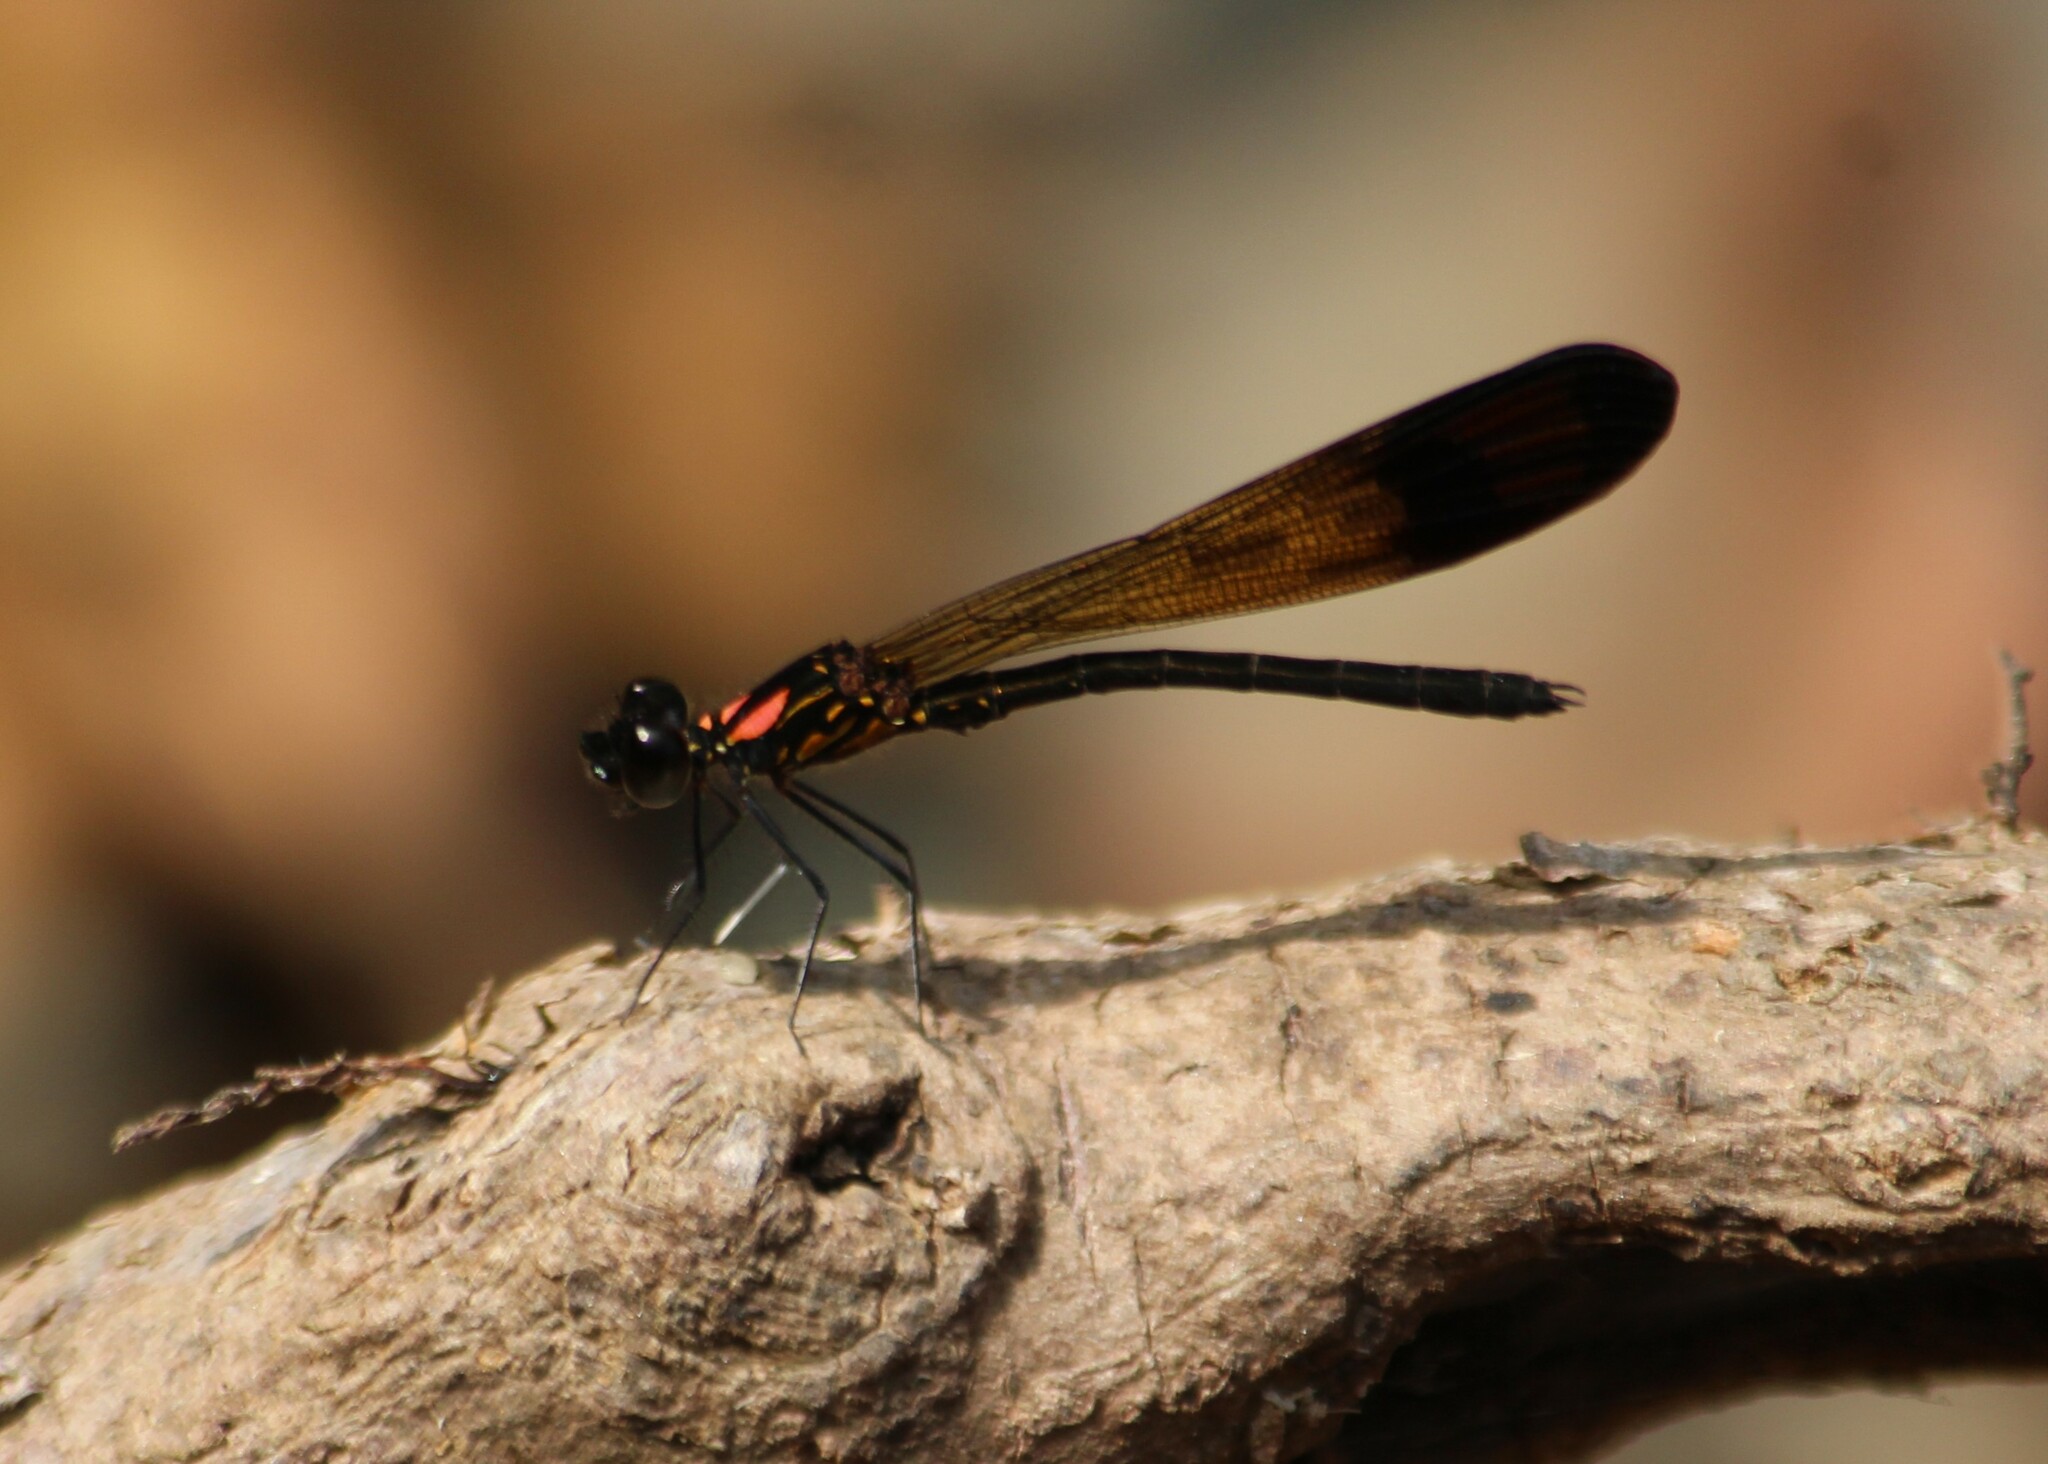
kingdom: Animalia
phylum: Arthropoda
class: Insecta
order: Odonata
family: Chlorocyphidae
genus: Heliocypha
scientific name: Heliocypha bisignata
